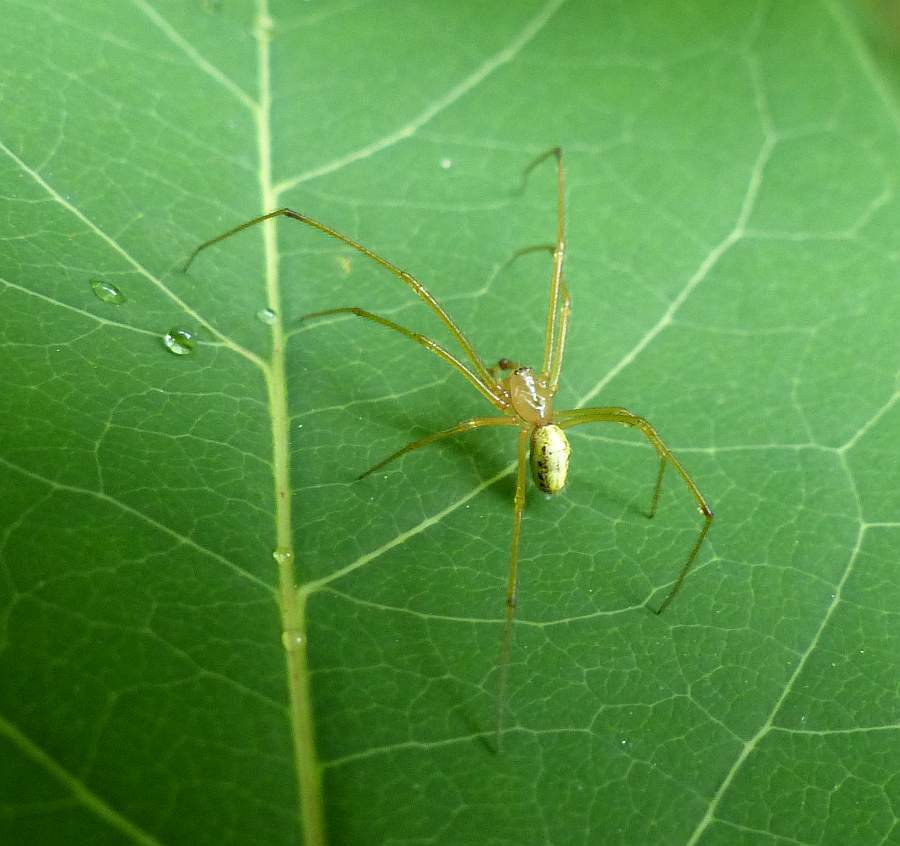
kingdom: Animalia
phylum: Arthropoda
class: Arachnida
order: Araneae
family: Theridiidae
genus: Enoplognatha
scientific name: Enoplognatha ovata
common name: Common candy-striped spider
